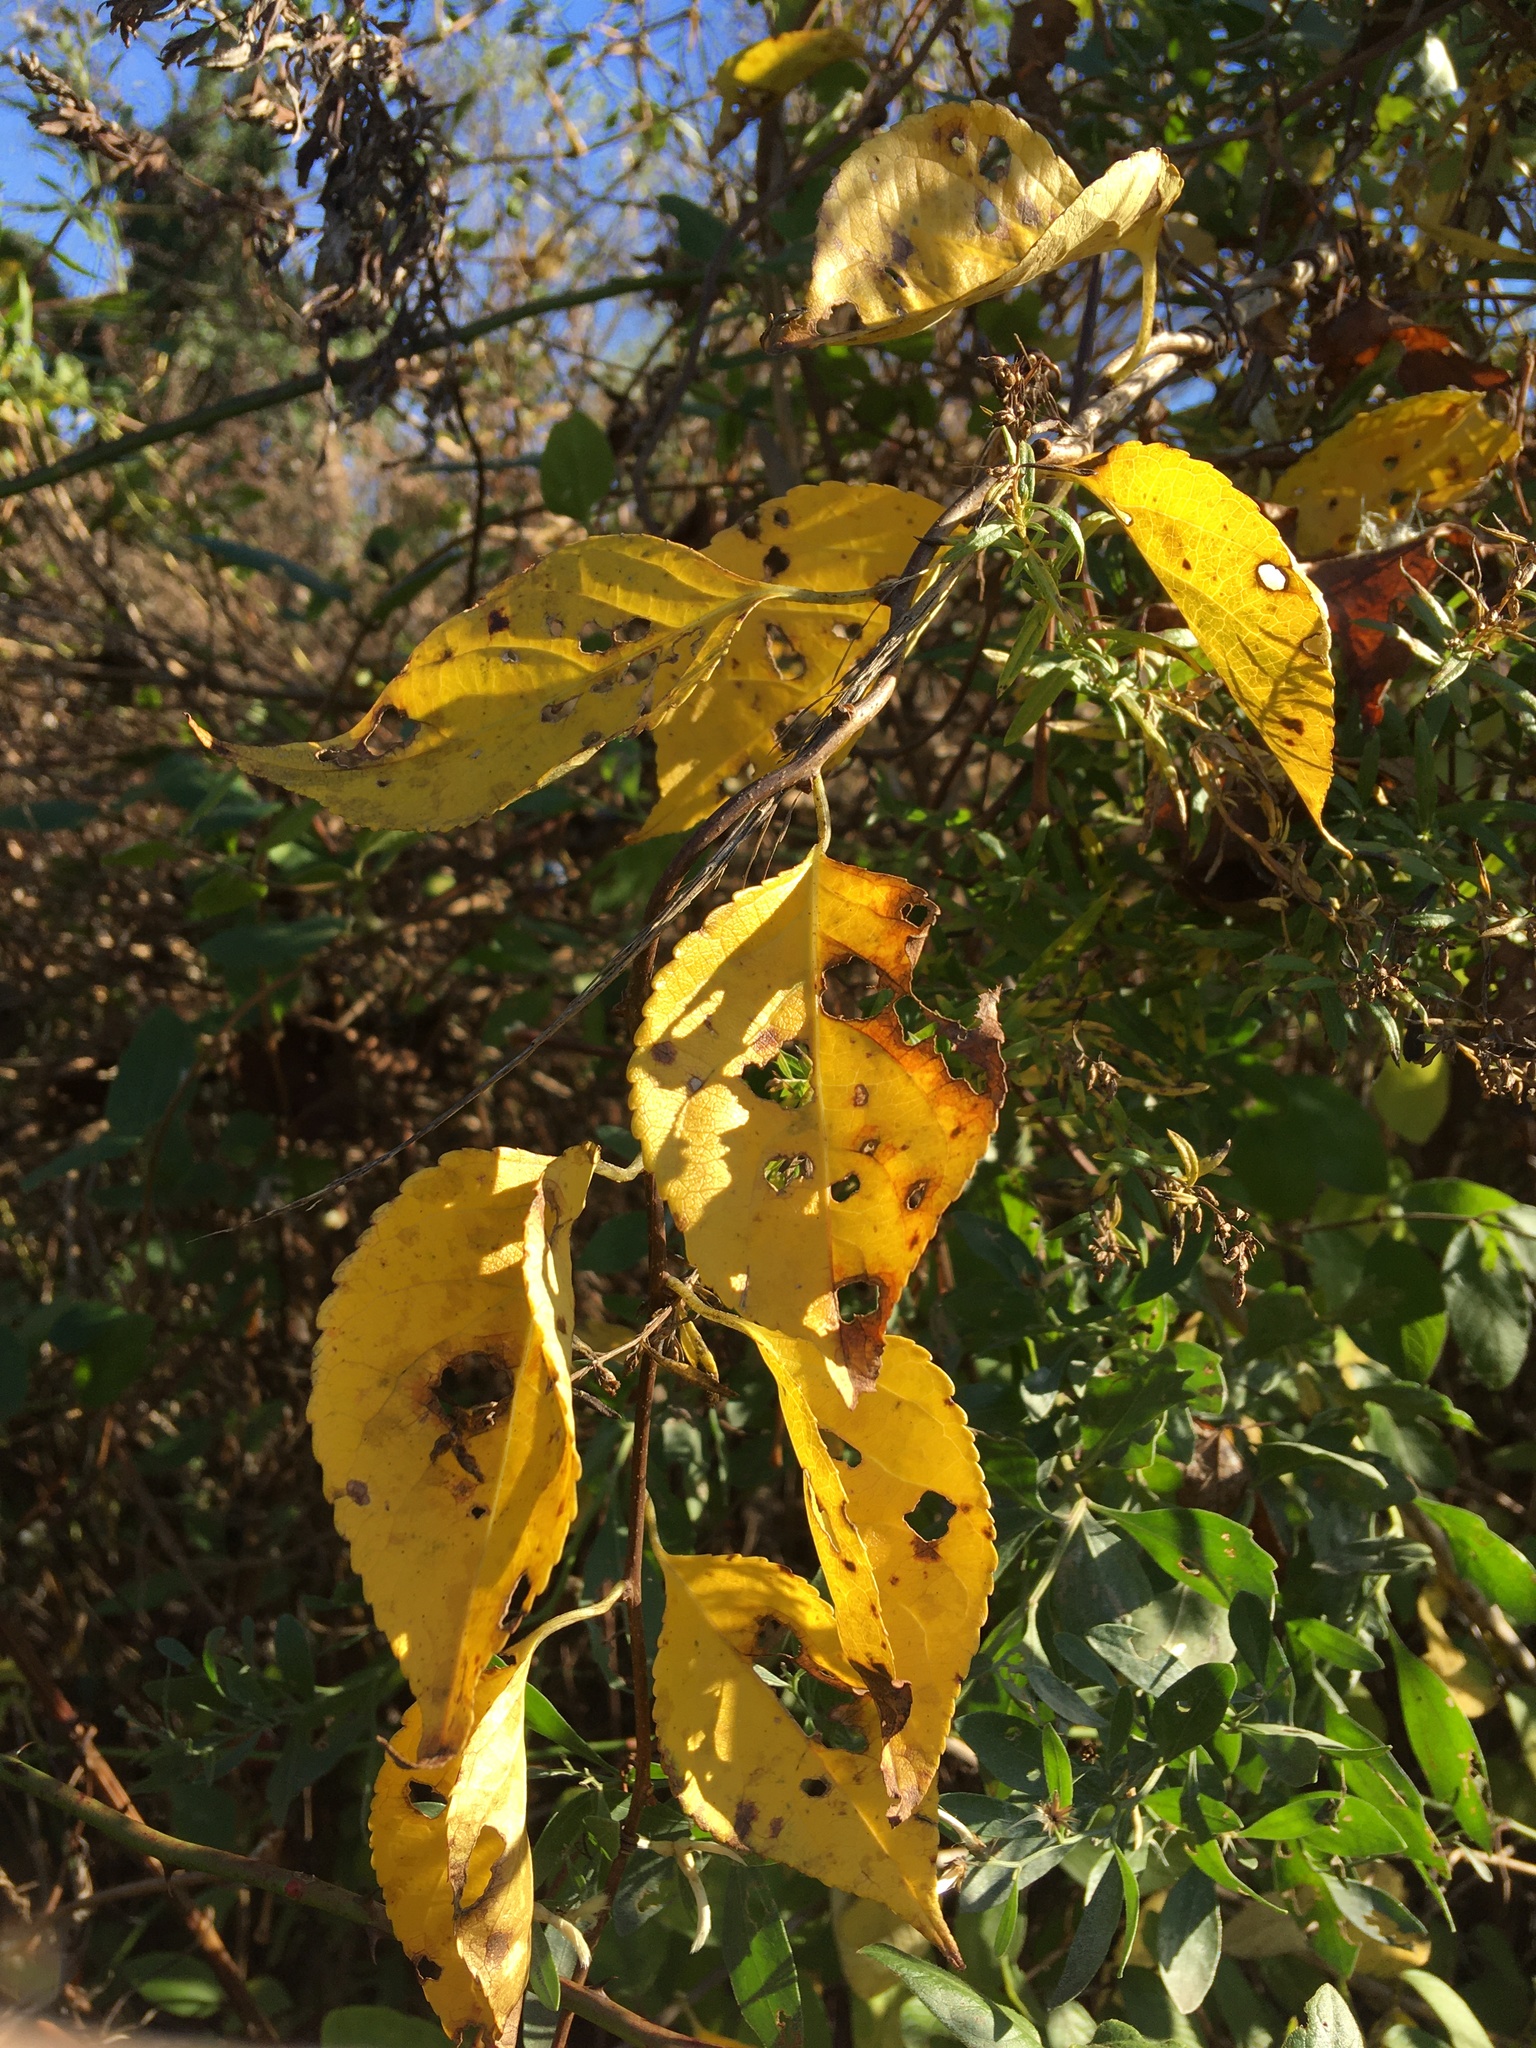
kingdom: Plantae
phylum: Tracheophyta
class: Magnoliopsida
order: Celastrales
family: Celastraceae
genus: Celastrus
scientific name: Celastrus orbiculatus
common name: Oriental bittersweet
